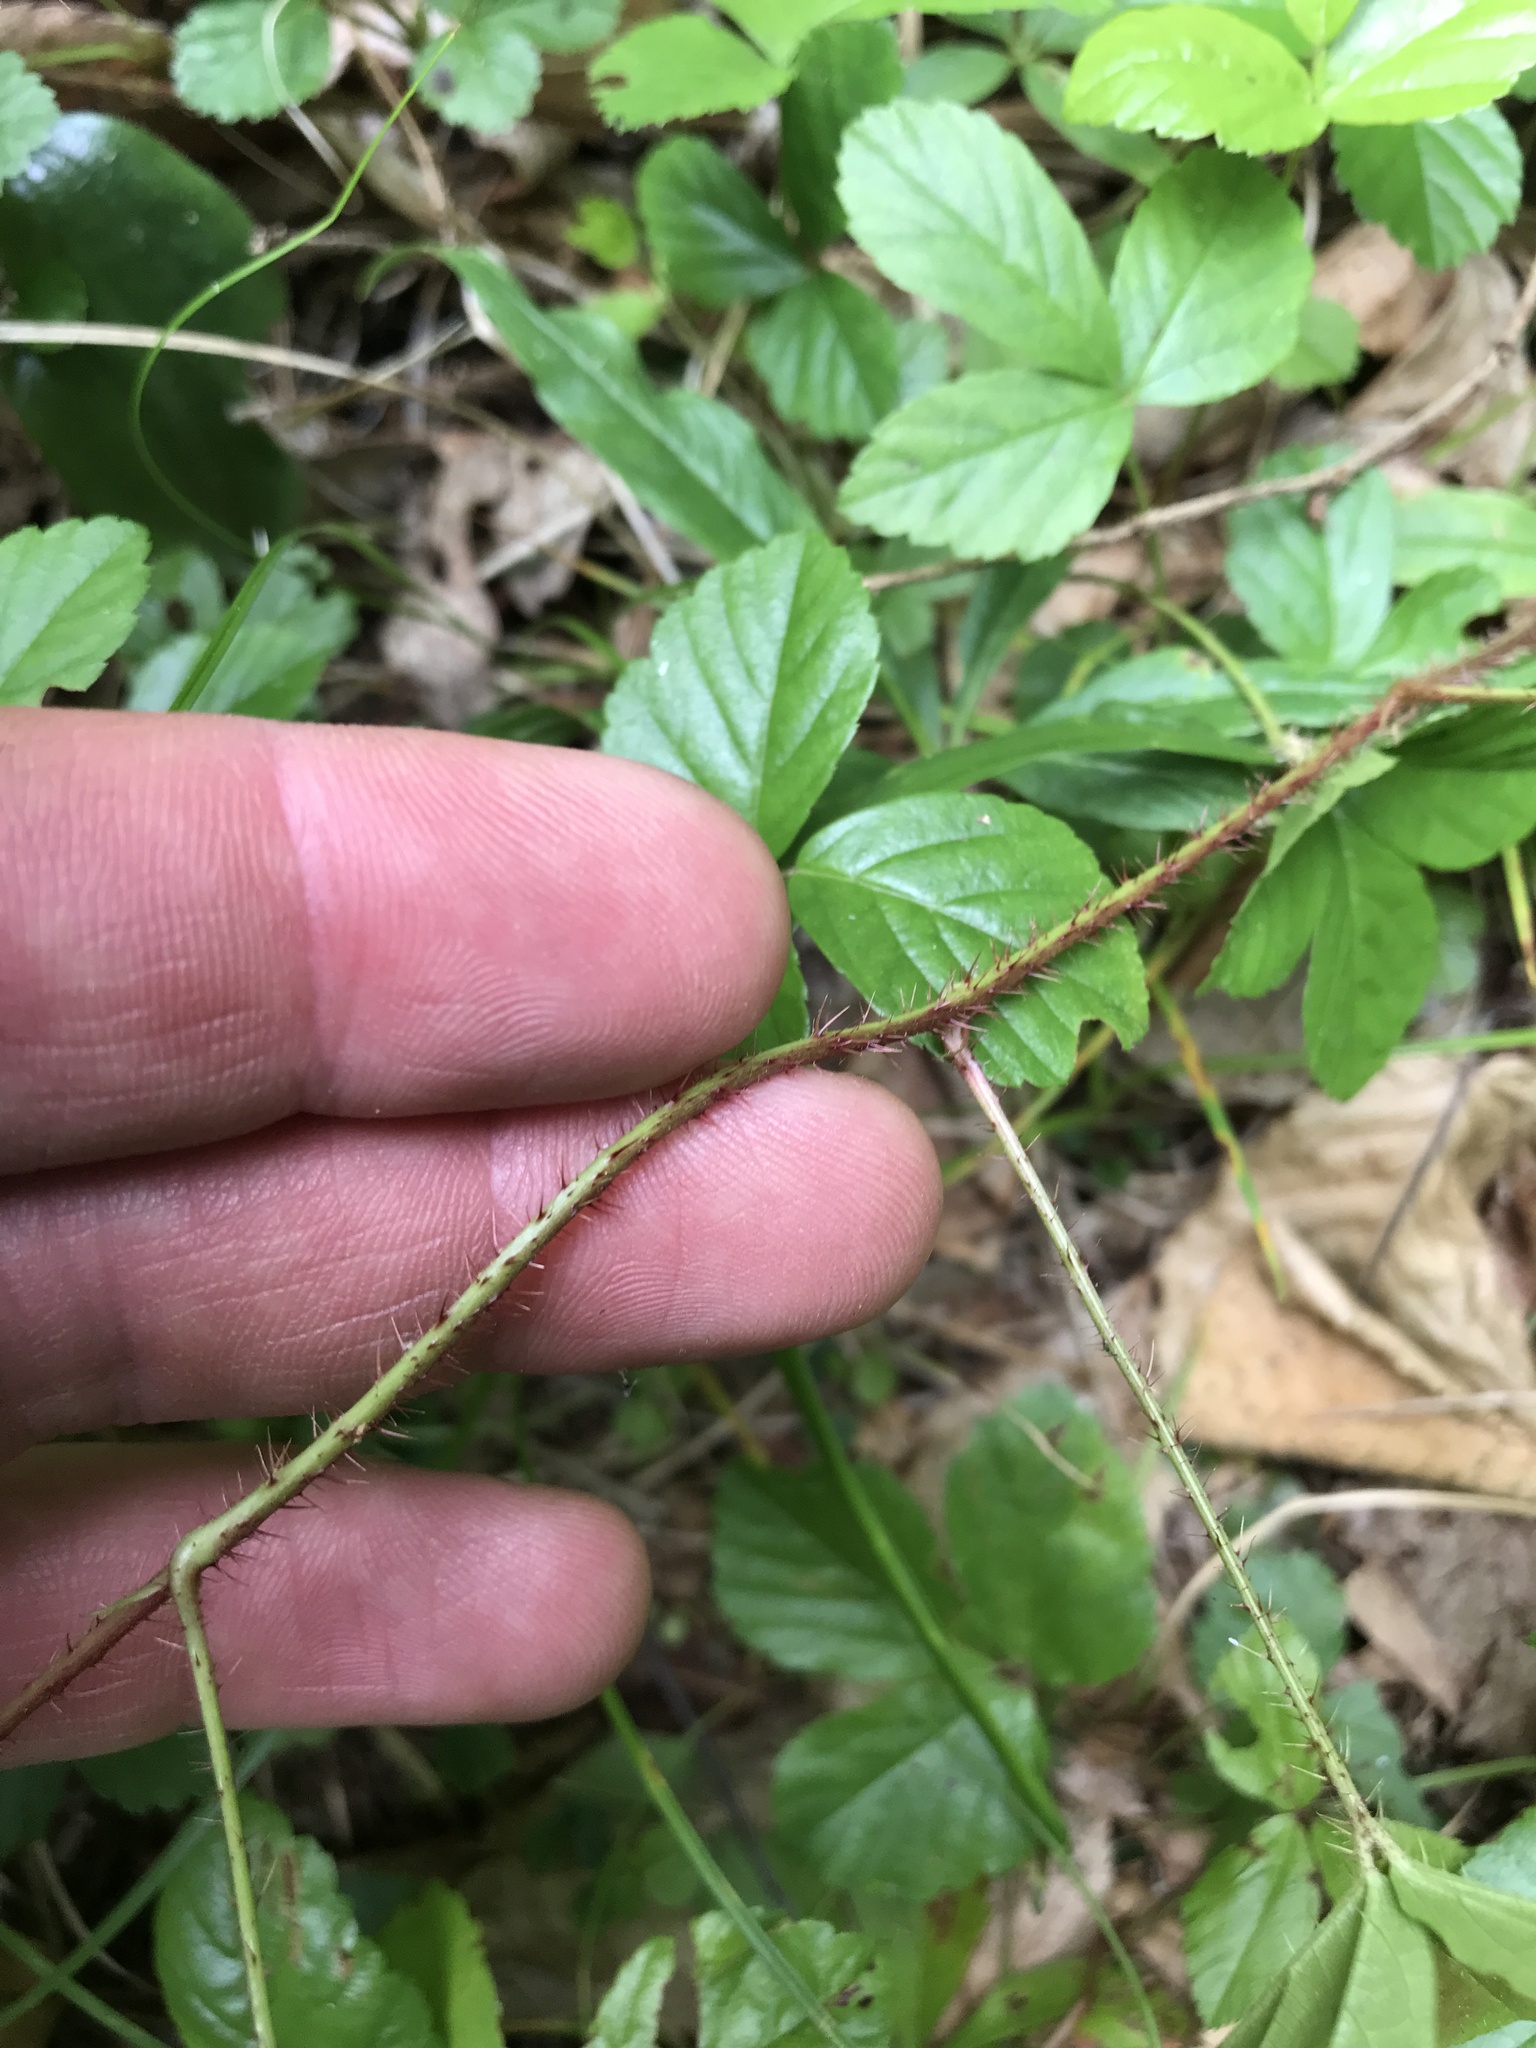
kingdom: Plantae
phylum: Tracheophyta
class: Magnoliopsida
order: Rosales
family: Rosaceae
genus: Rubus
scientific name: Rubus hispidus
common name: Running blackberry
